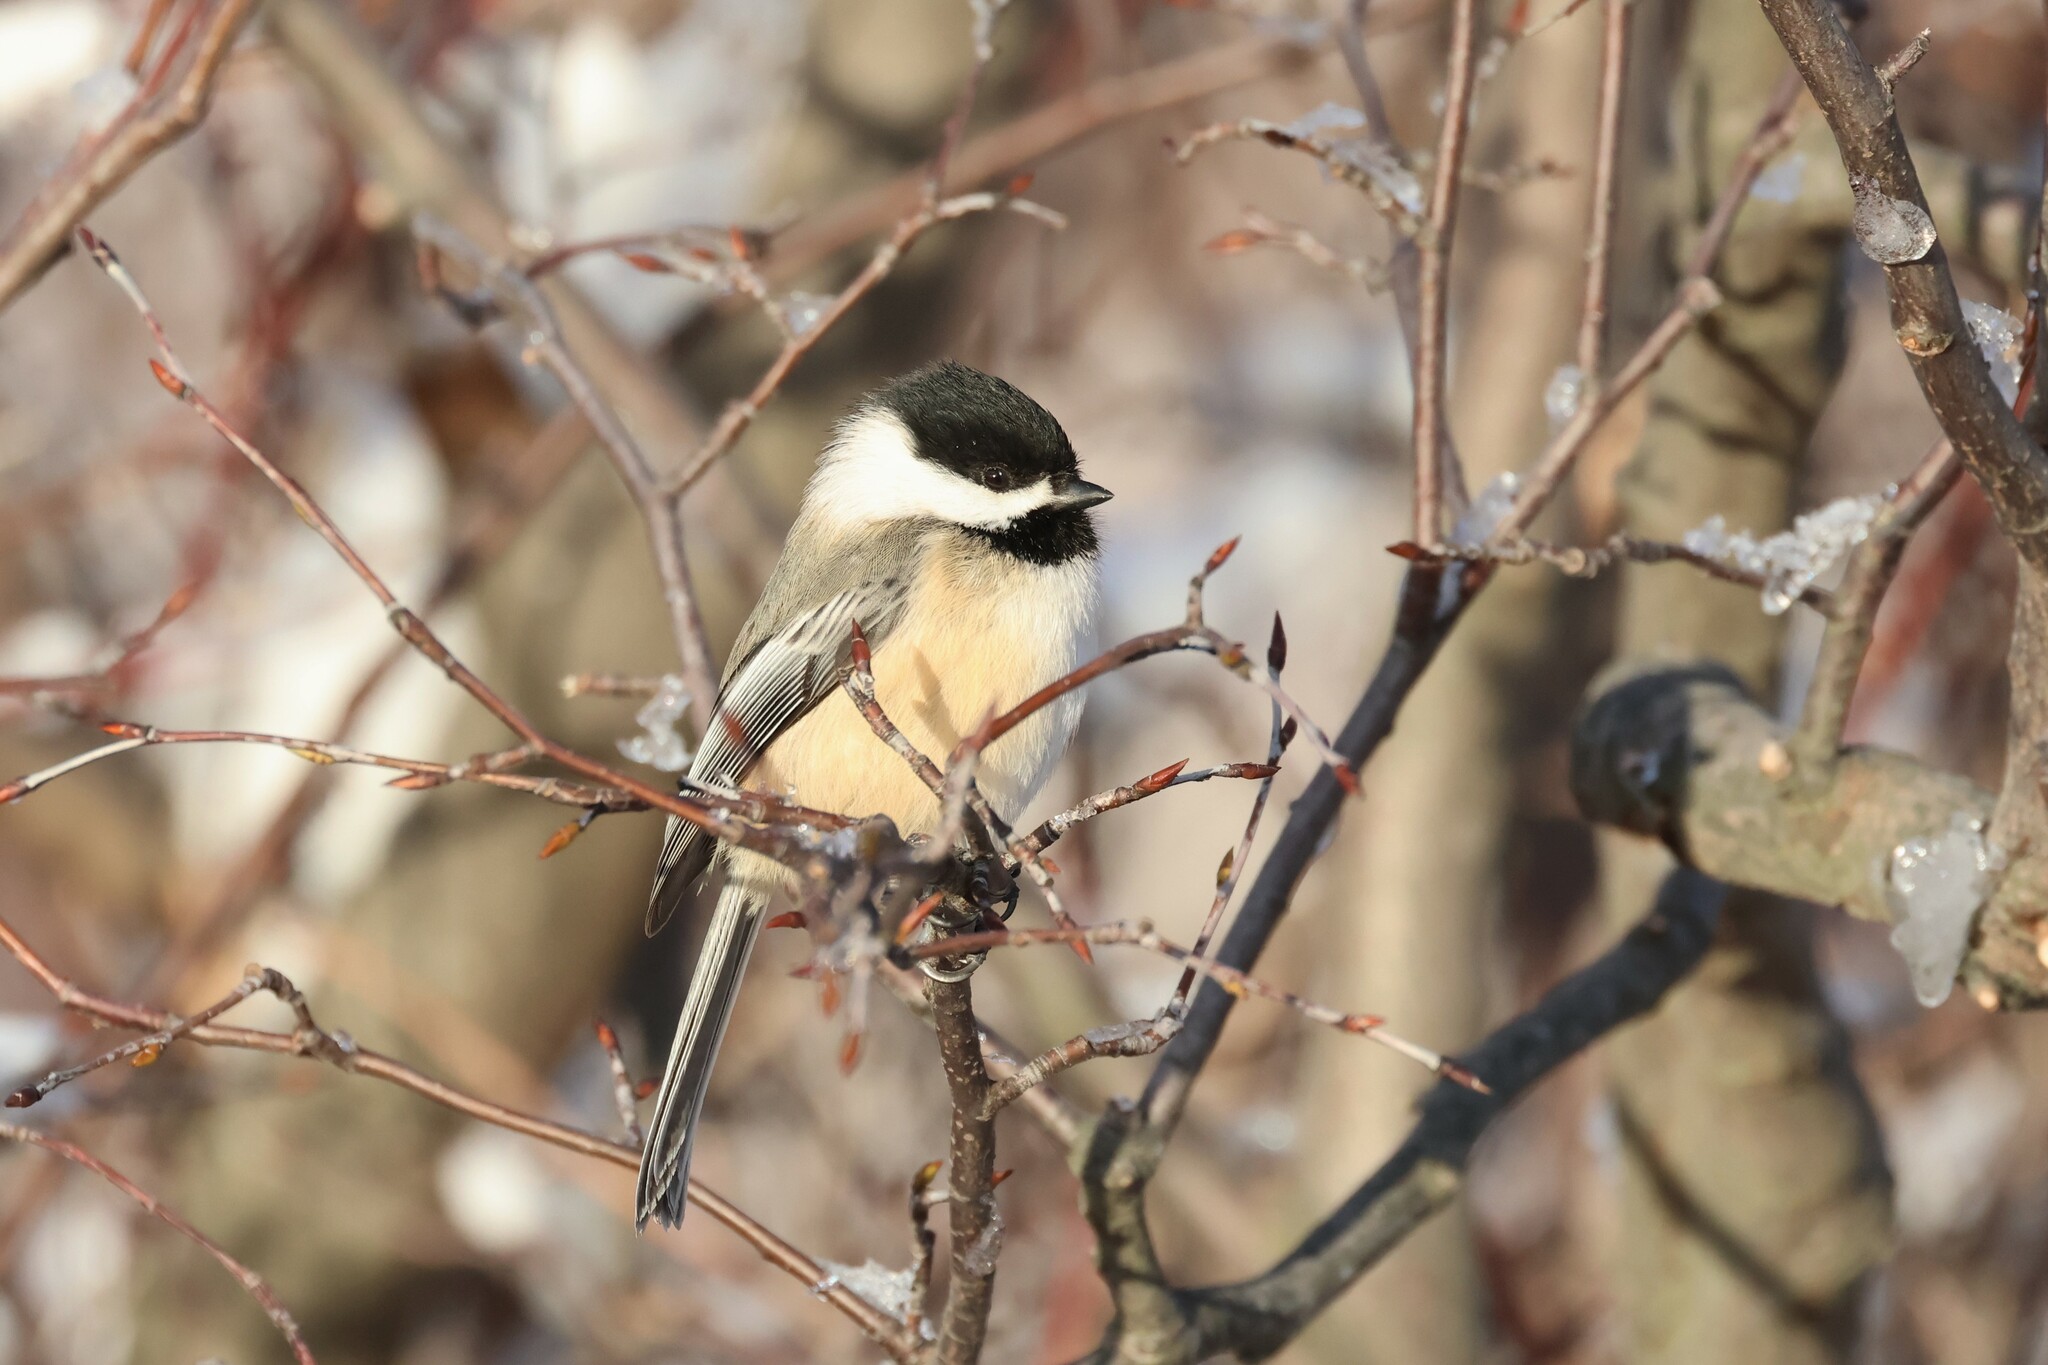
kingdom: Animalia
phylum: Chordata
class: Aves
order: Passeriformes
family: Paridae
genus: Poecile
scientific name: Poecile atricapillus
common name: Black-capped chickadee
